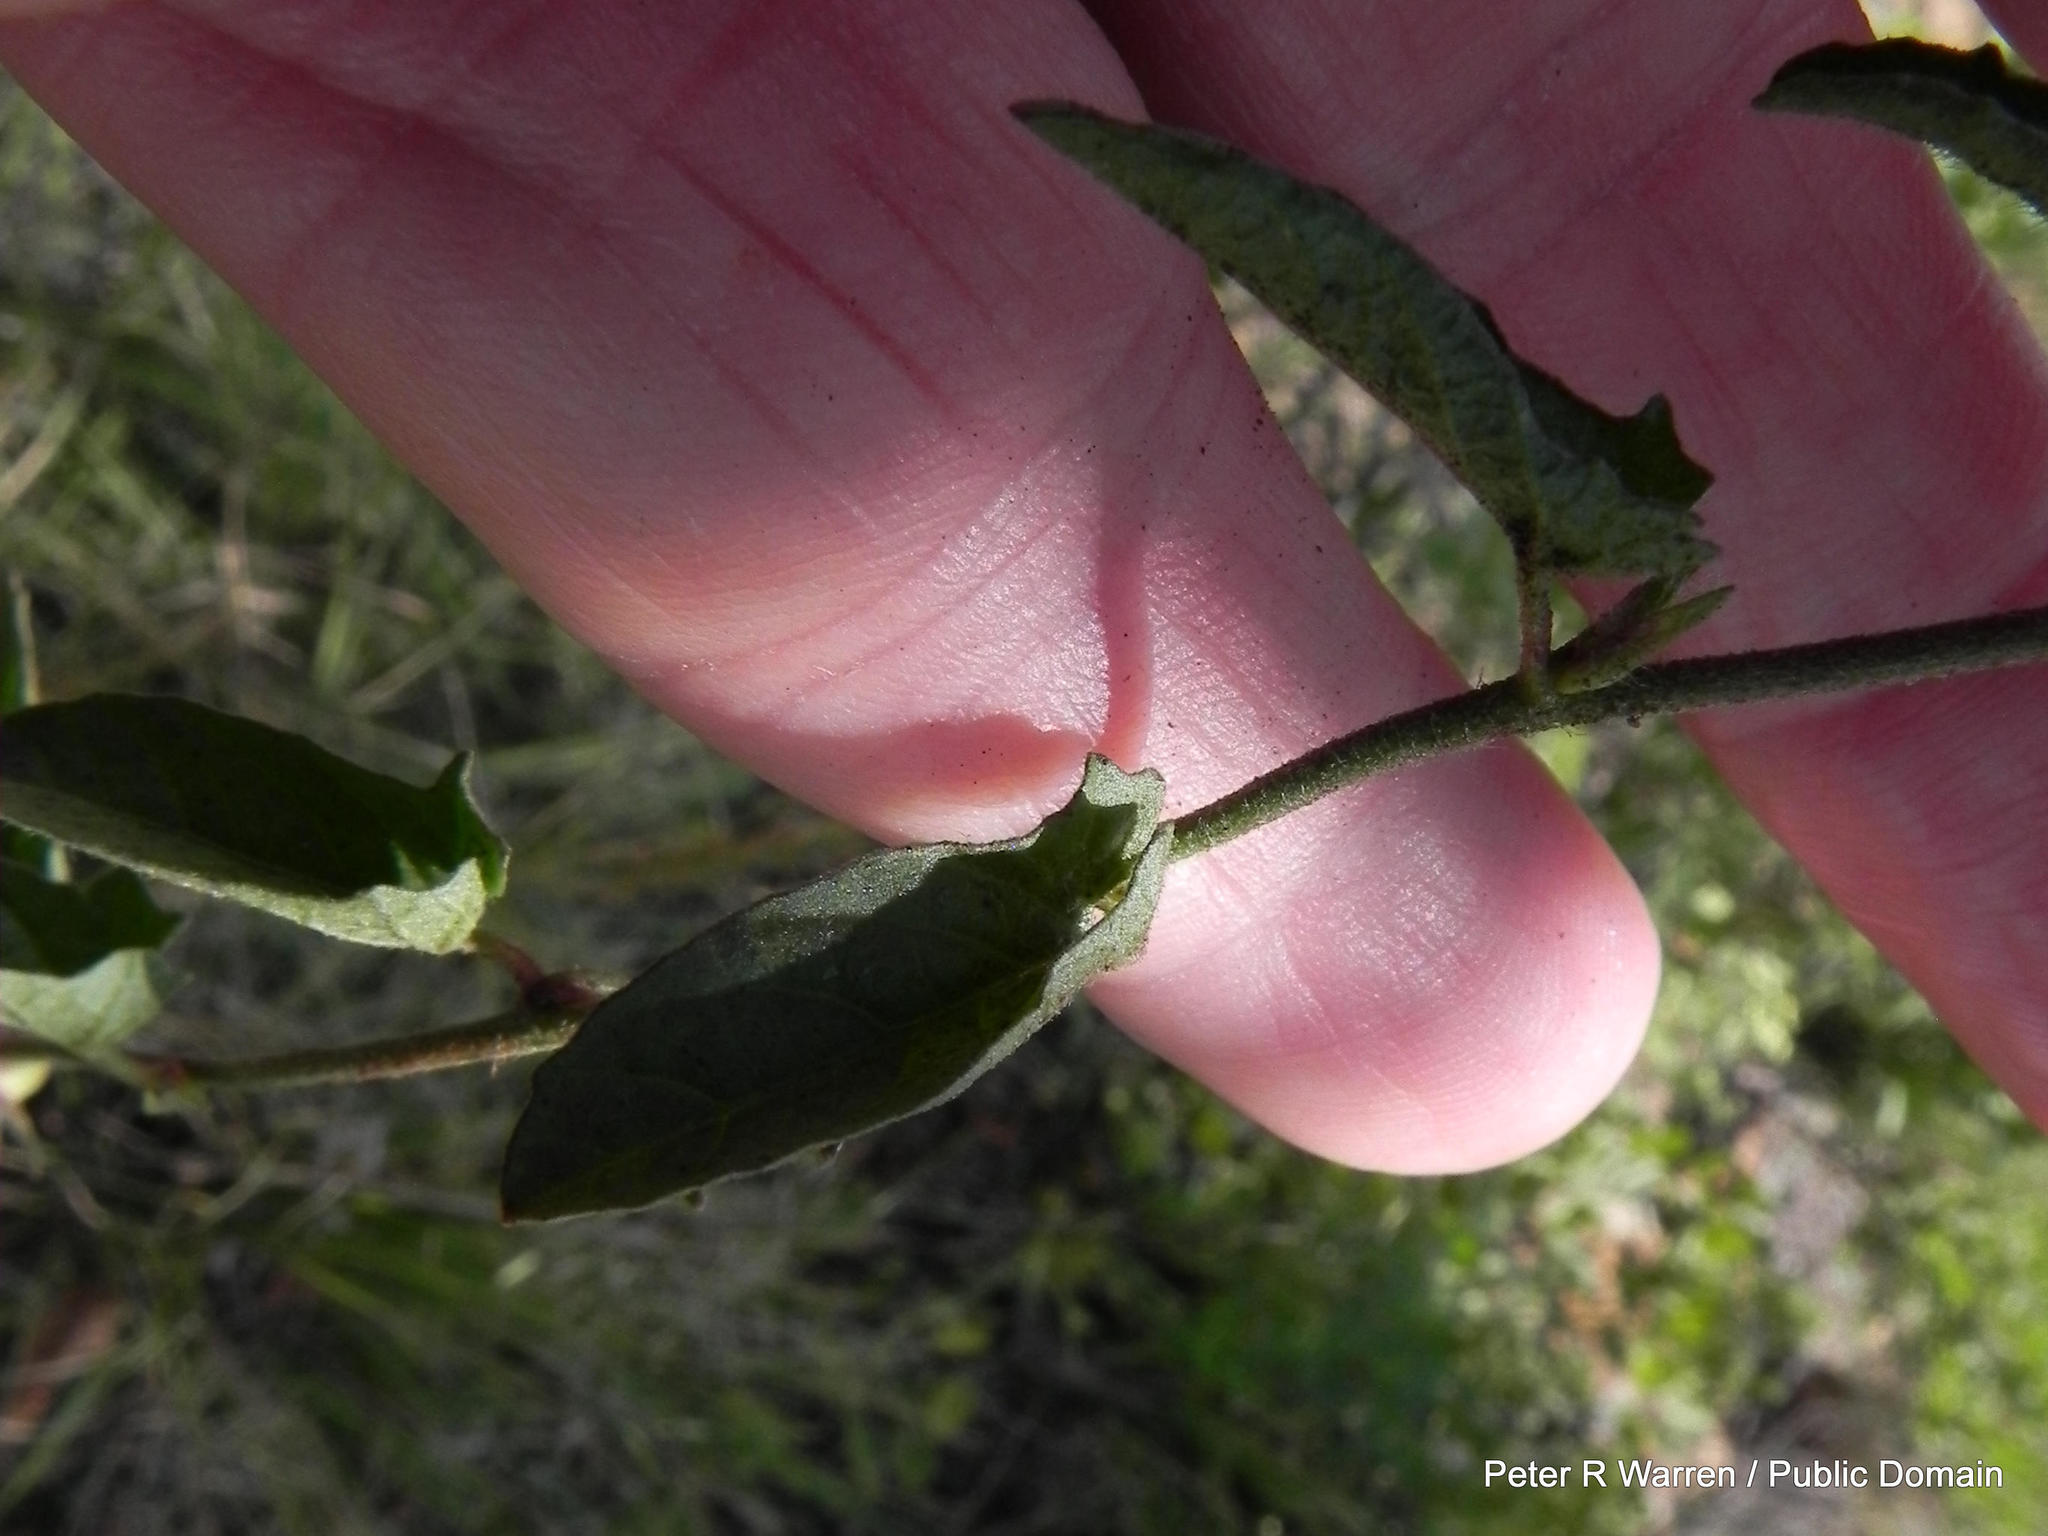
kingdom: Plantae
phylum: Tracheophyta
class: Magnoliopsida
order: Solanales
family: Convolvulaceae
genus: Ipomoea
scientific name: Ipomoea gracilisepala
